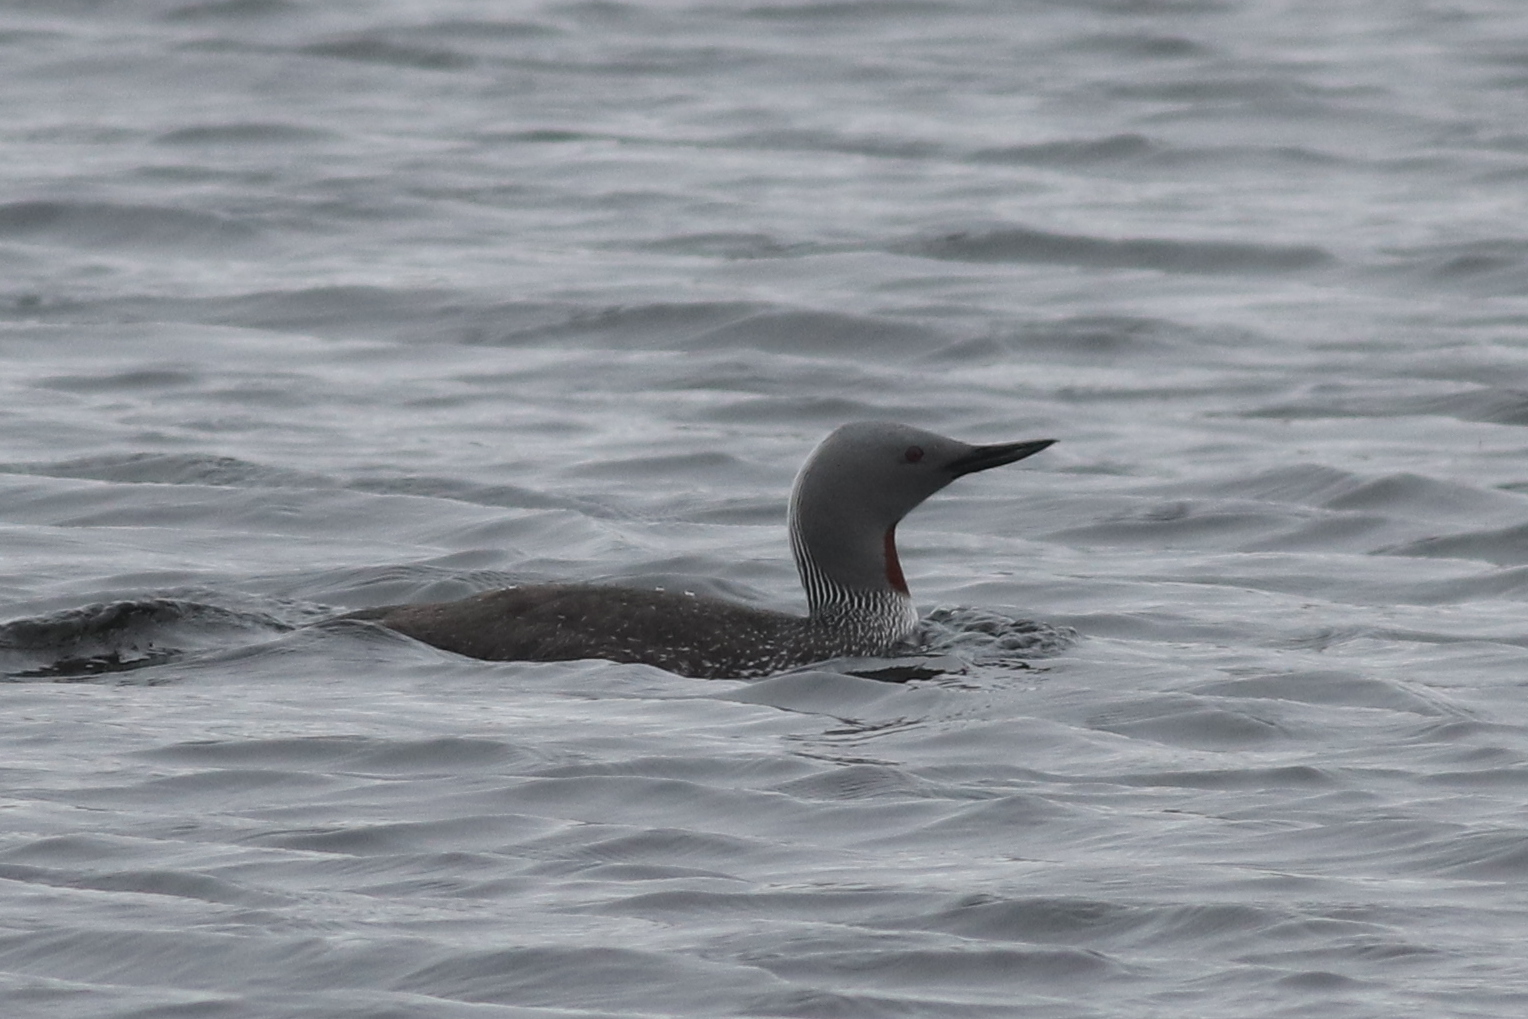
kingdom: Animalia
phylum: Chordata
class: Aves
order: Gaviiformes
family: Gaviidae
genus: Gavia
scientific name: Gavia stellata
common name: Red-throated loon
